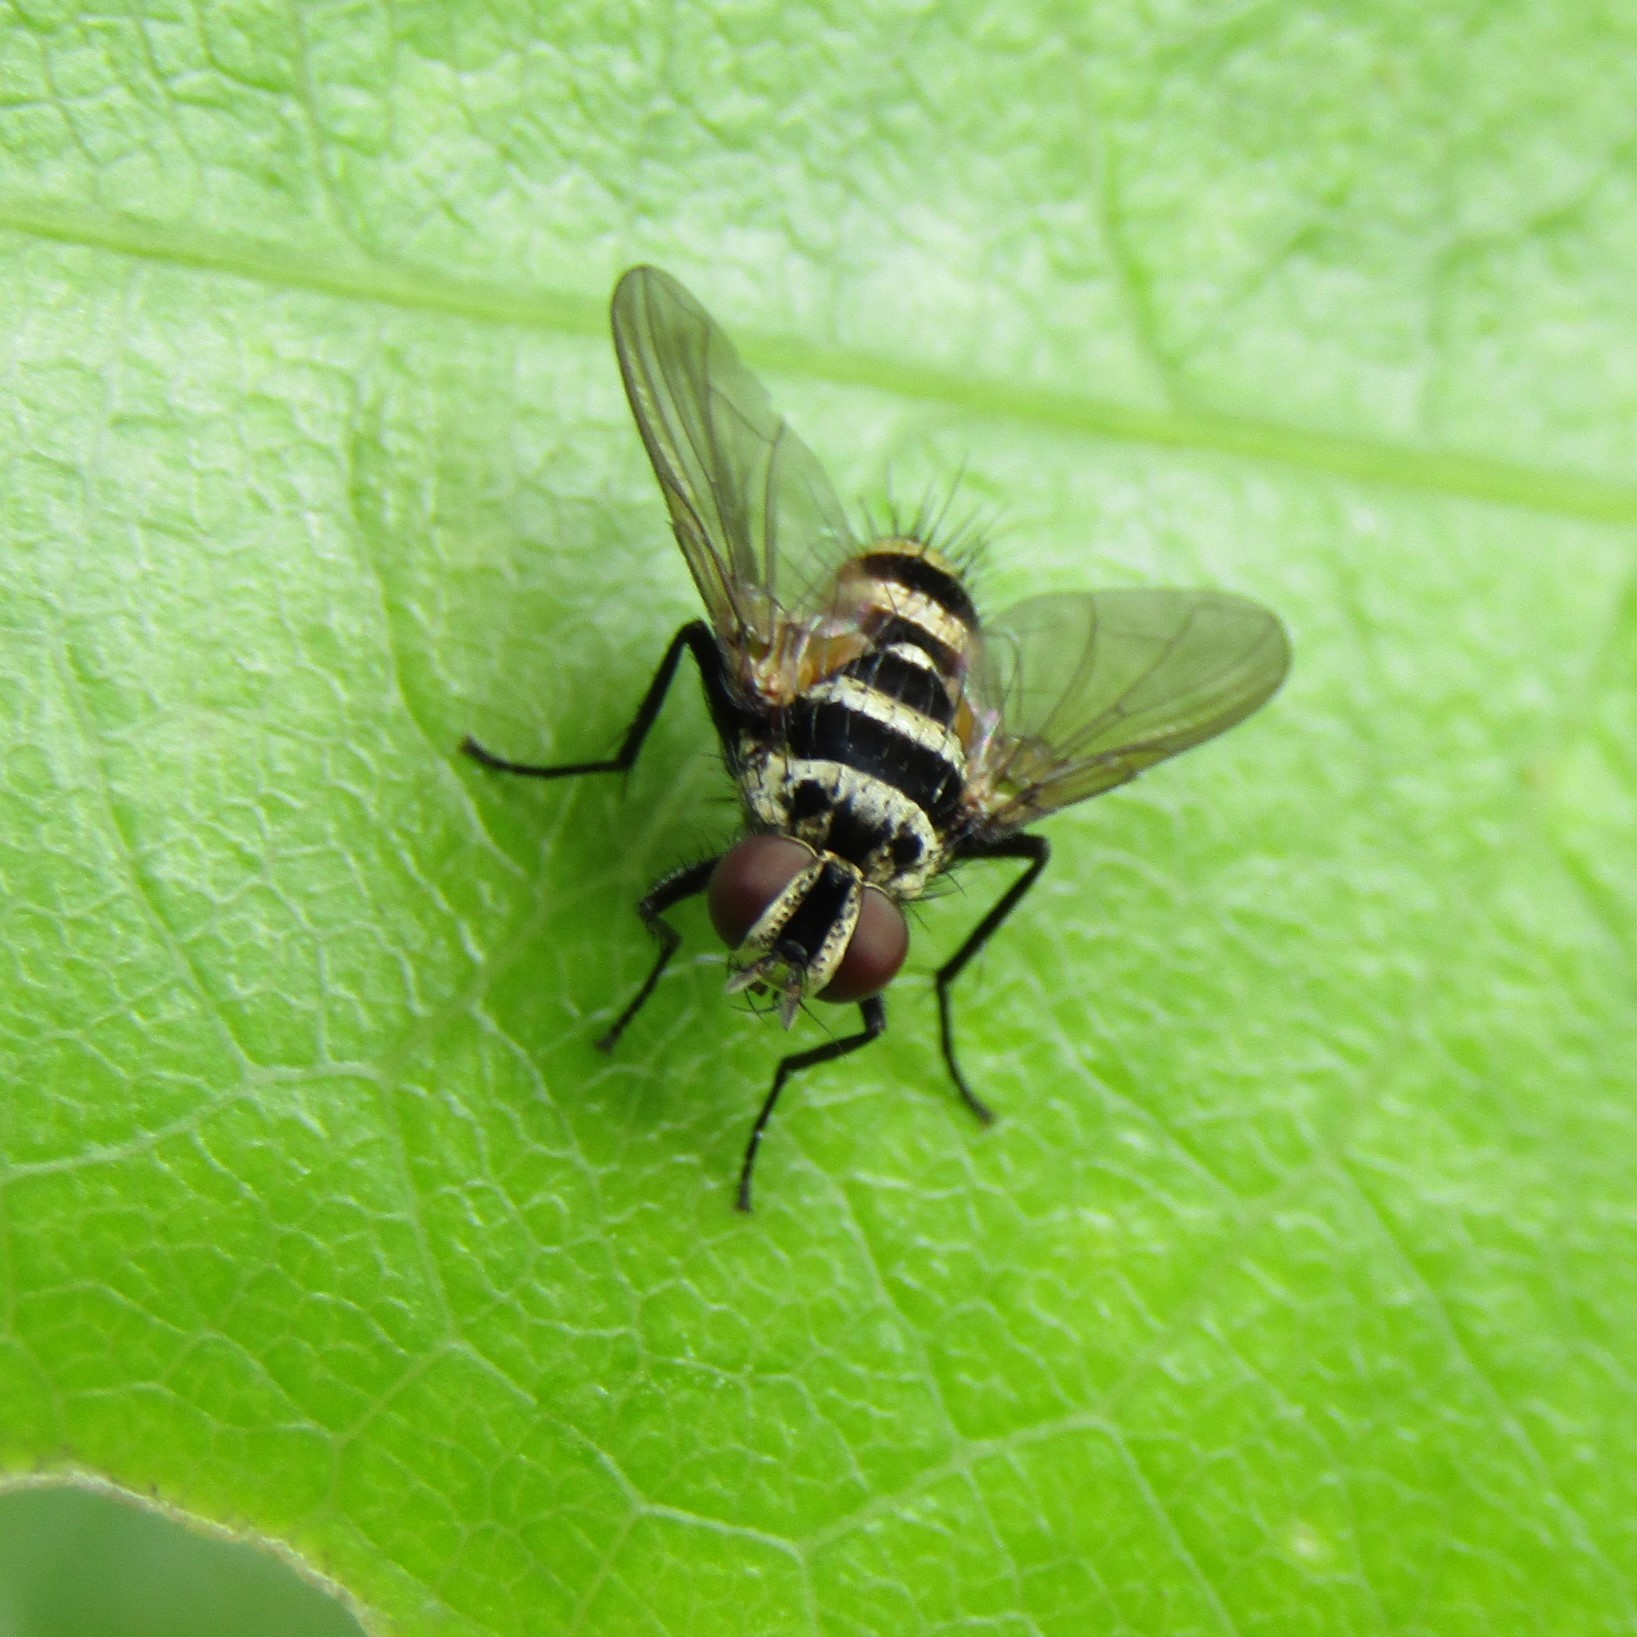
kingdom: Animalia
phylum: Arthropoda
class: Insecta
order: Diptera
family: Tachinidae
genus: Trigonospila
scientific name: Trigonospila brevifacies
